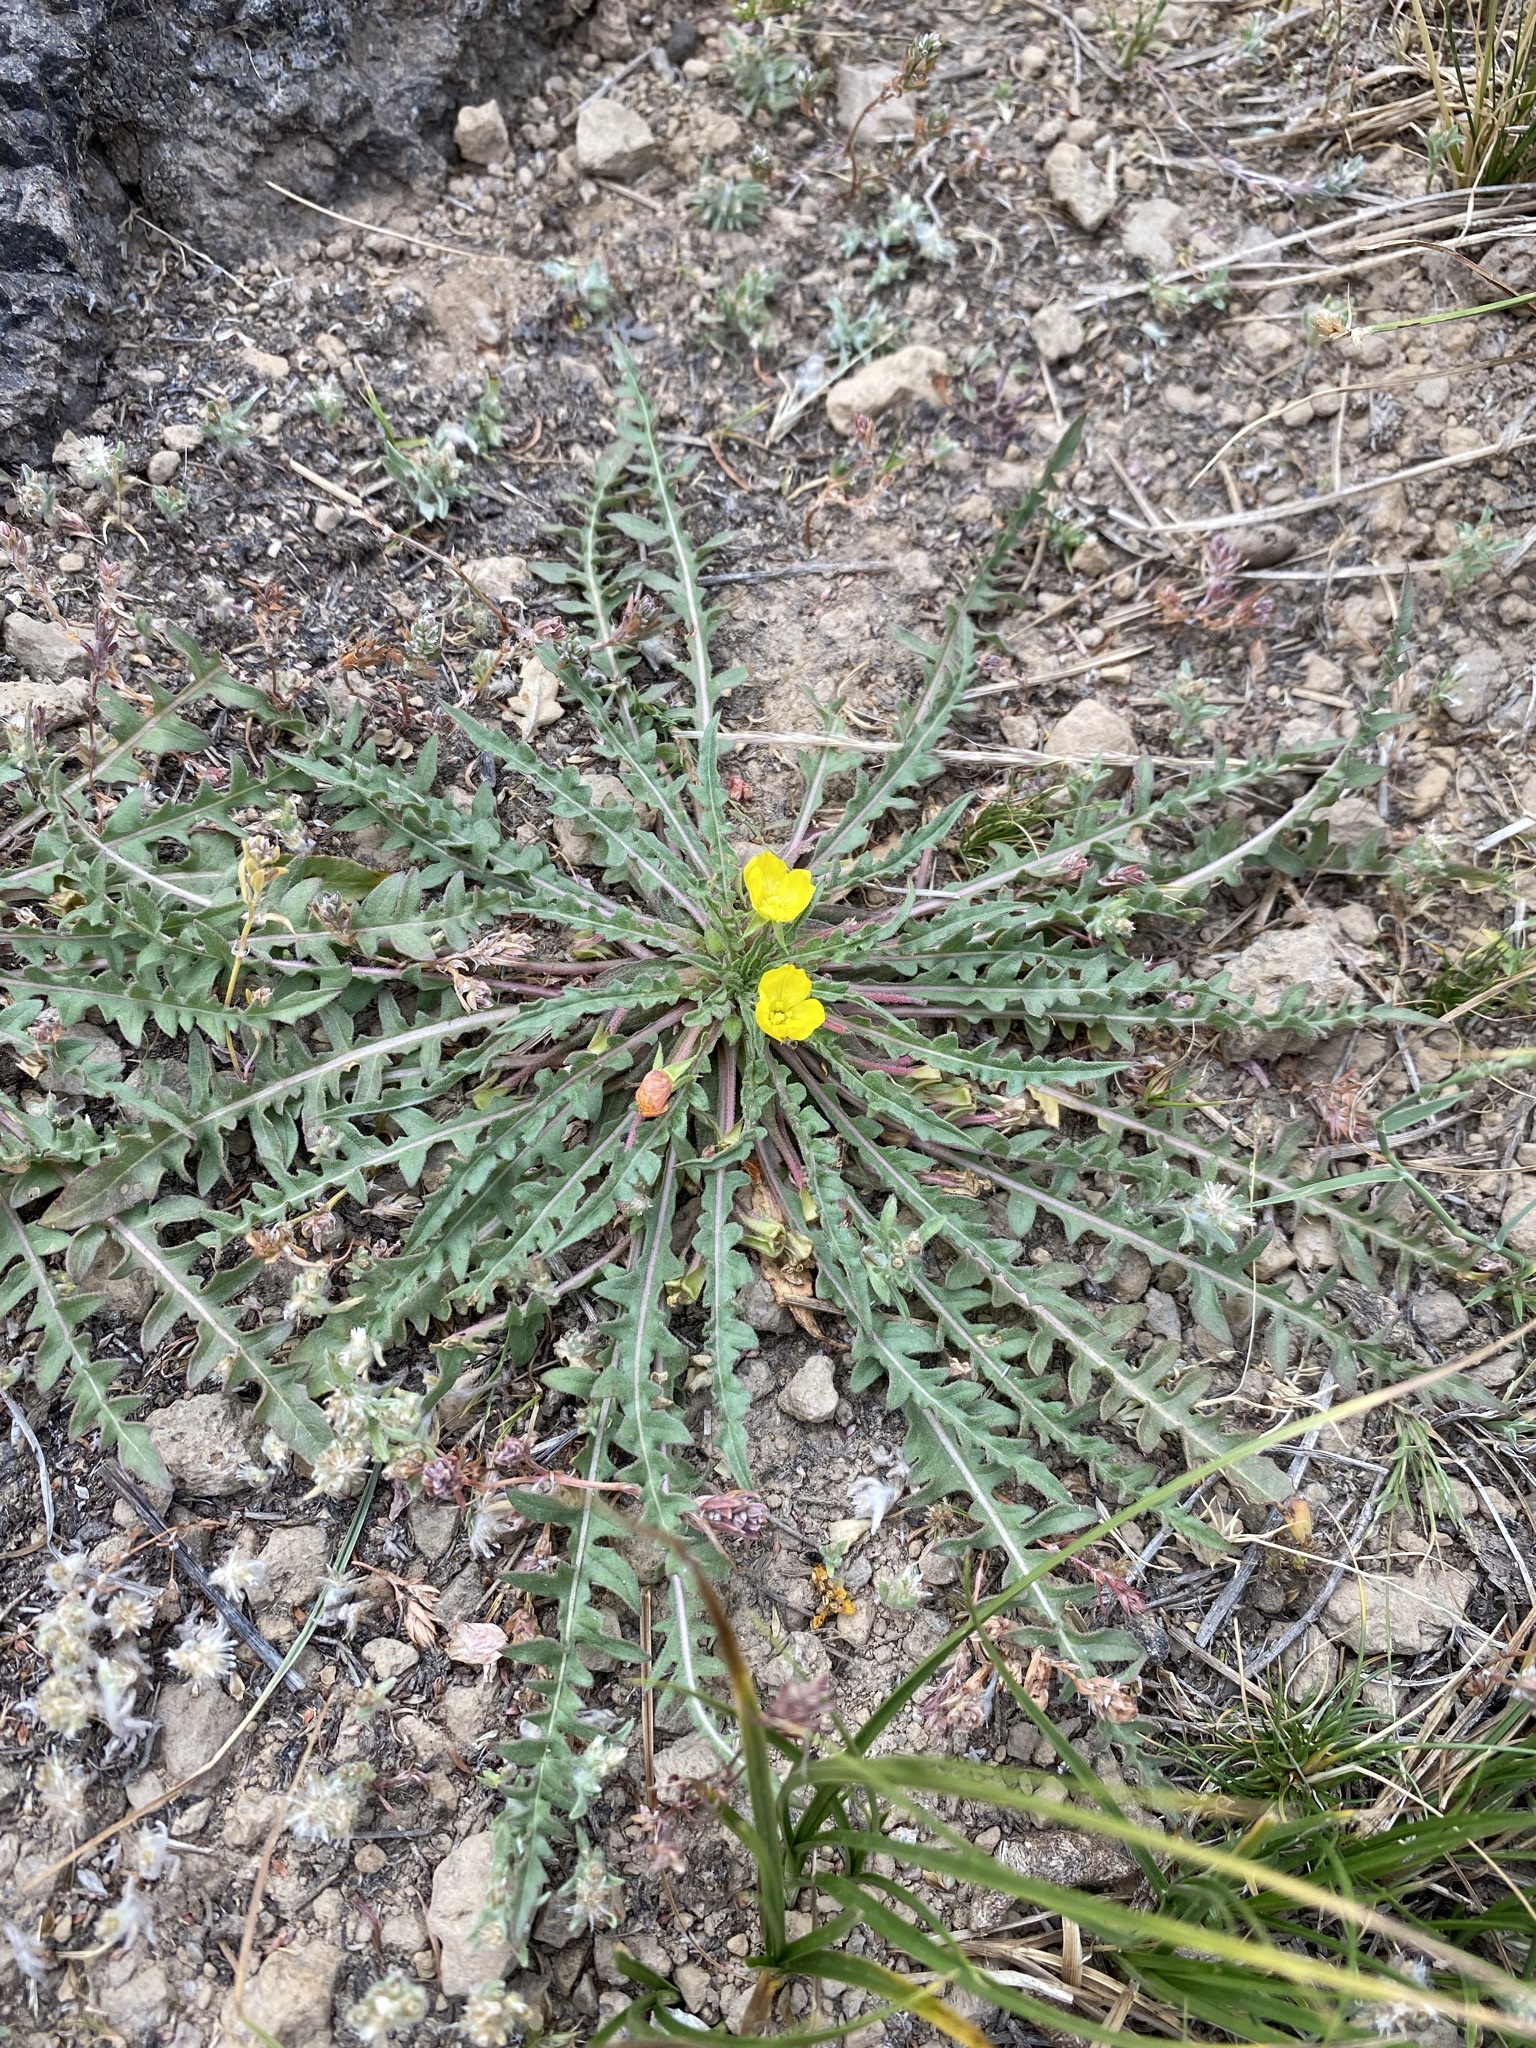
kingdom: Plantae
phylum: Tracheophyta
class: Magnoliopsida
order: Myrtales
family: Onagraceae
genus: Taraxia
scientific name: Taraxia tanacetifolia
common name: Tansyleaf evening primrose
